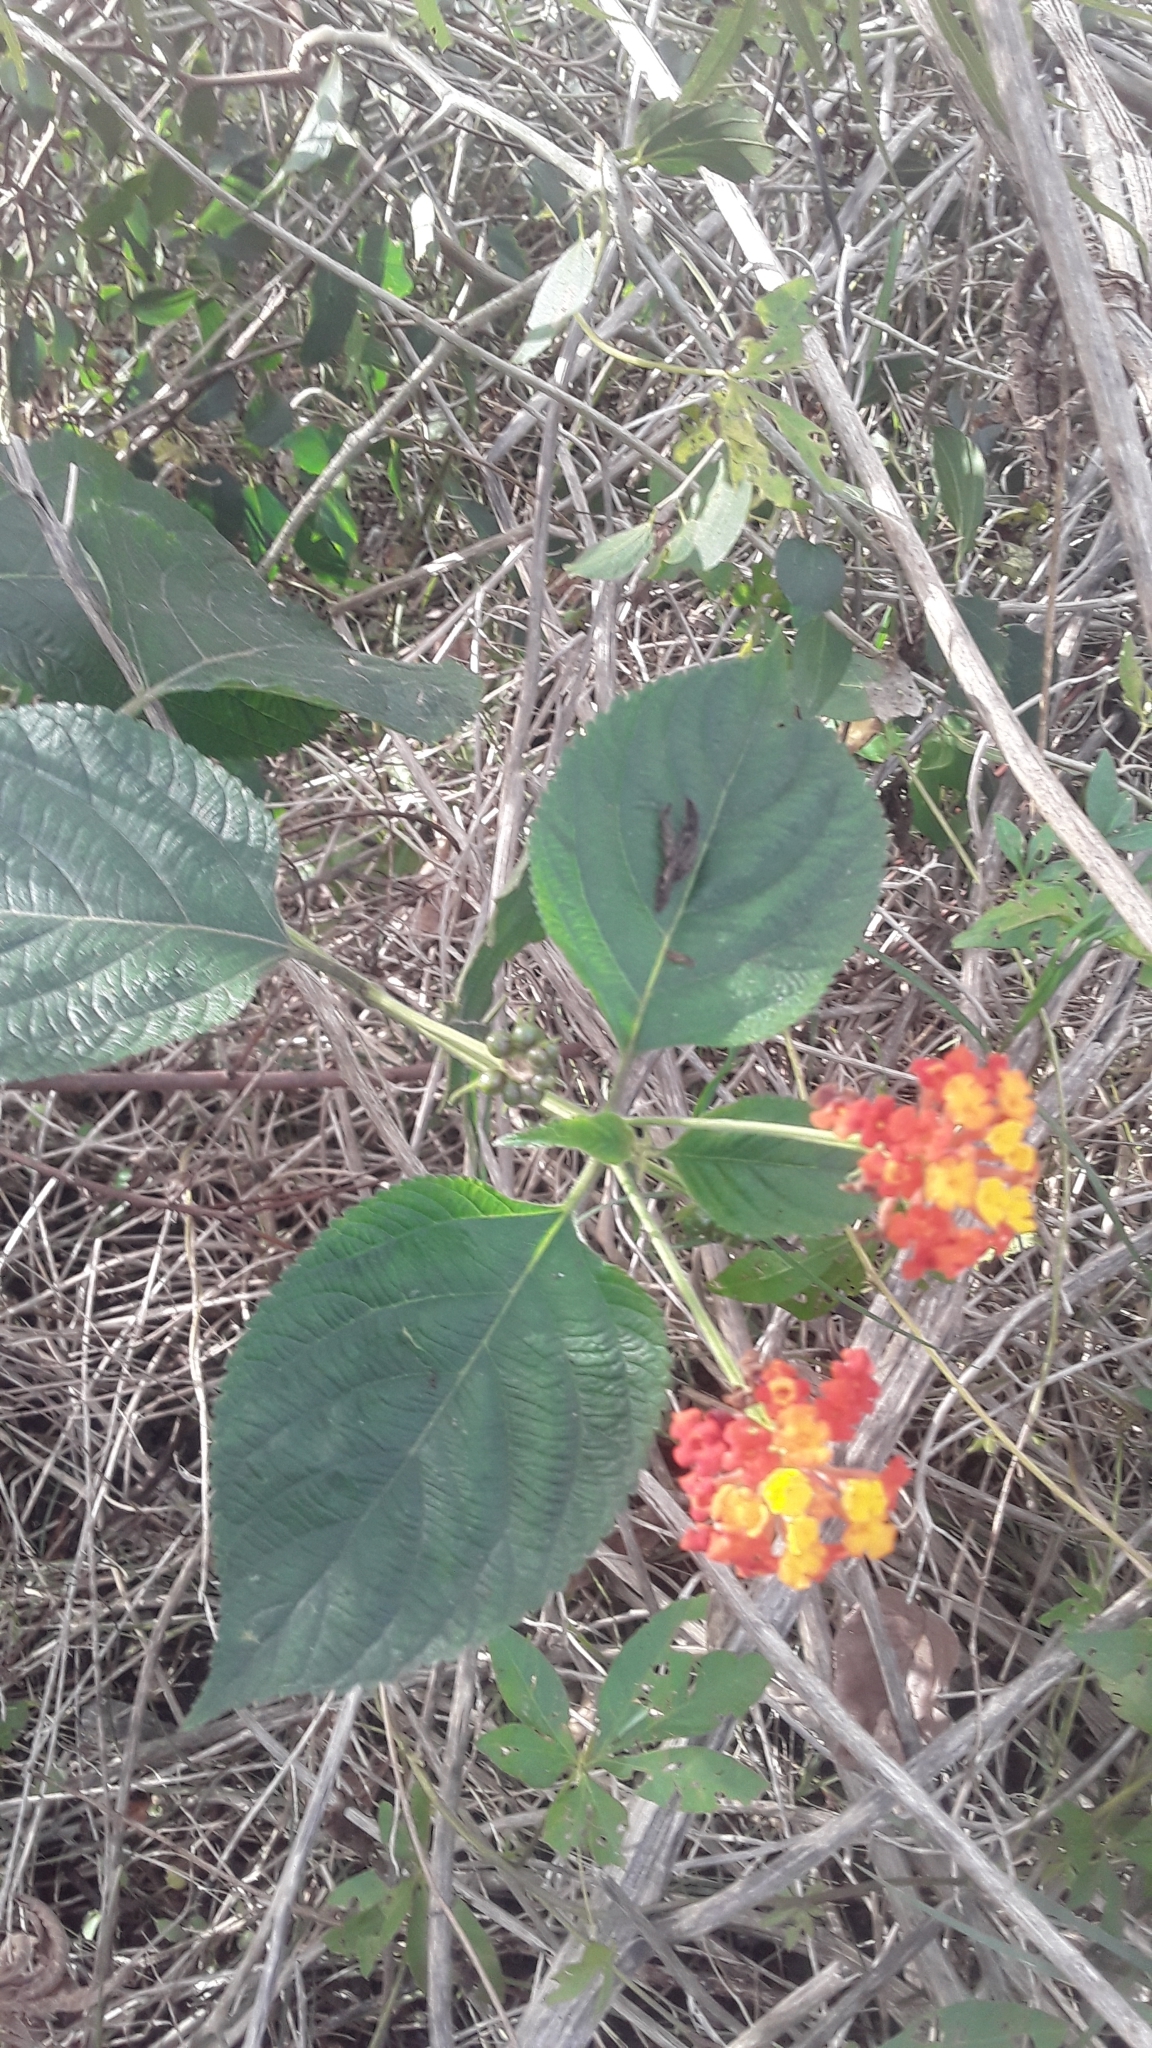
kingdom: Plantae
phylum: Tracheophyta
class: Magnoliopsida
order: Lamiales
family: Verbenaceae
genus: Lantana
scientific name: Lantana camara
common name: Lantana
